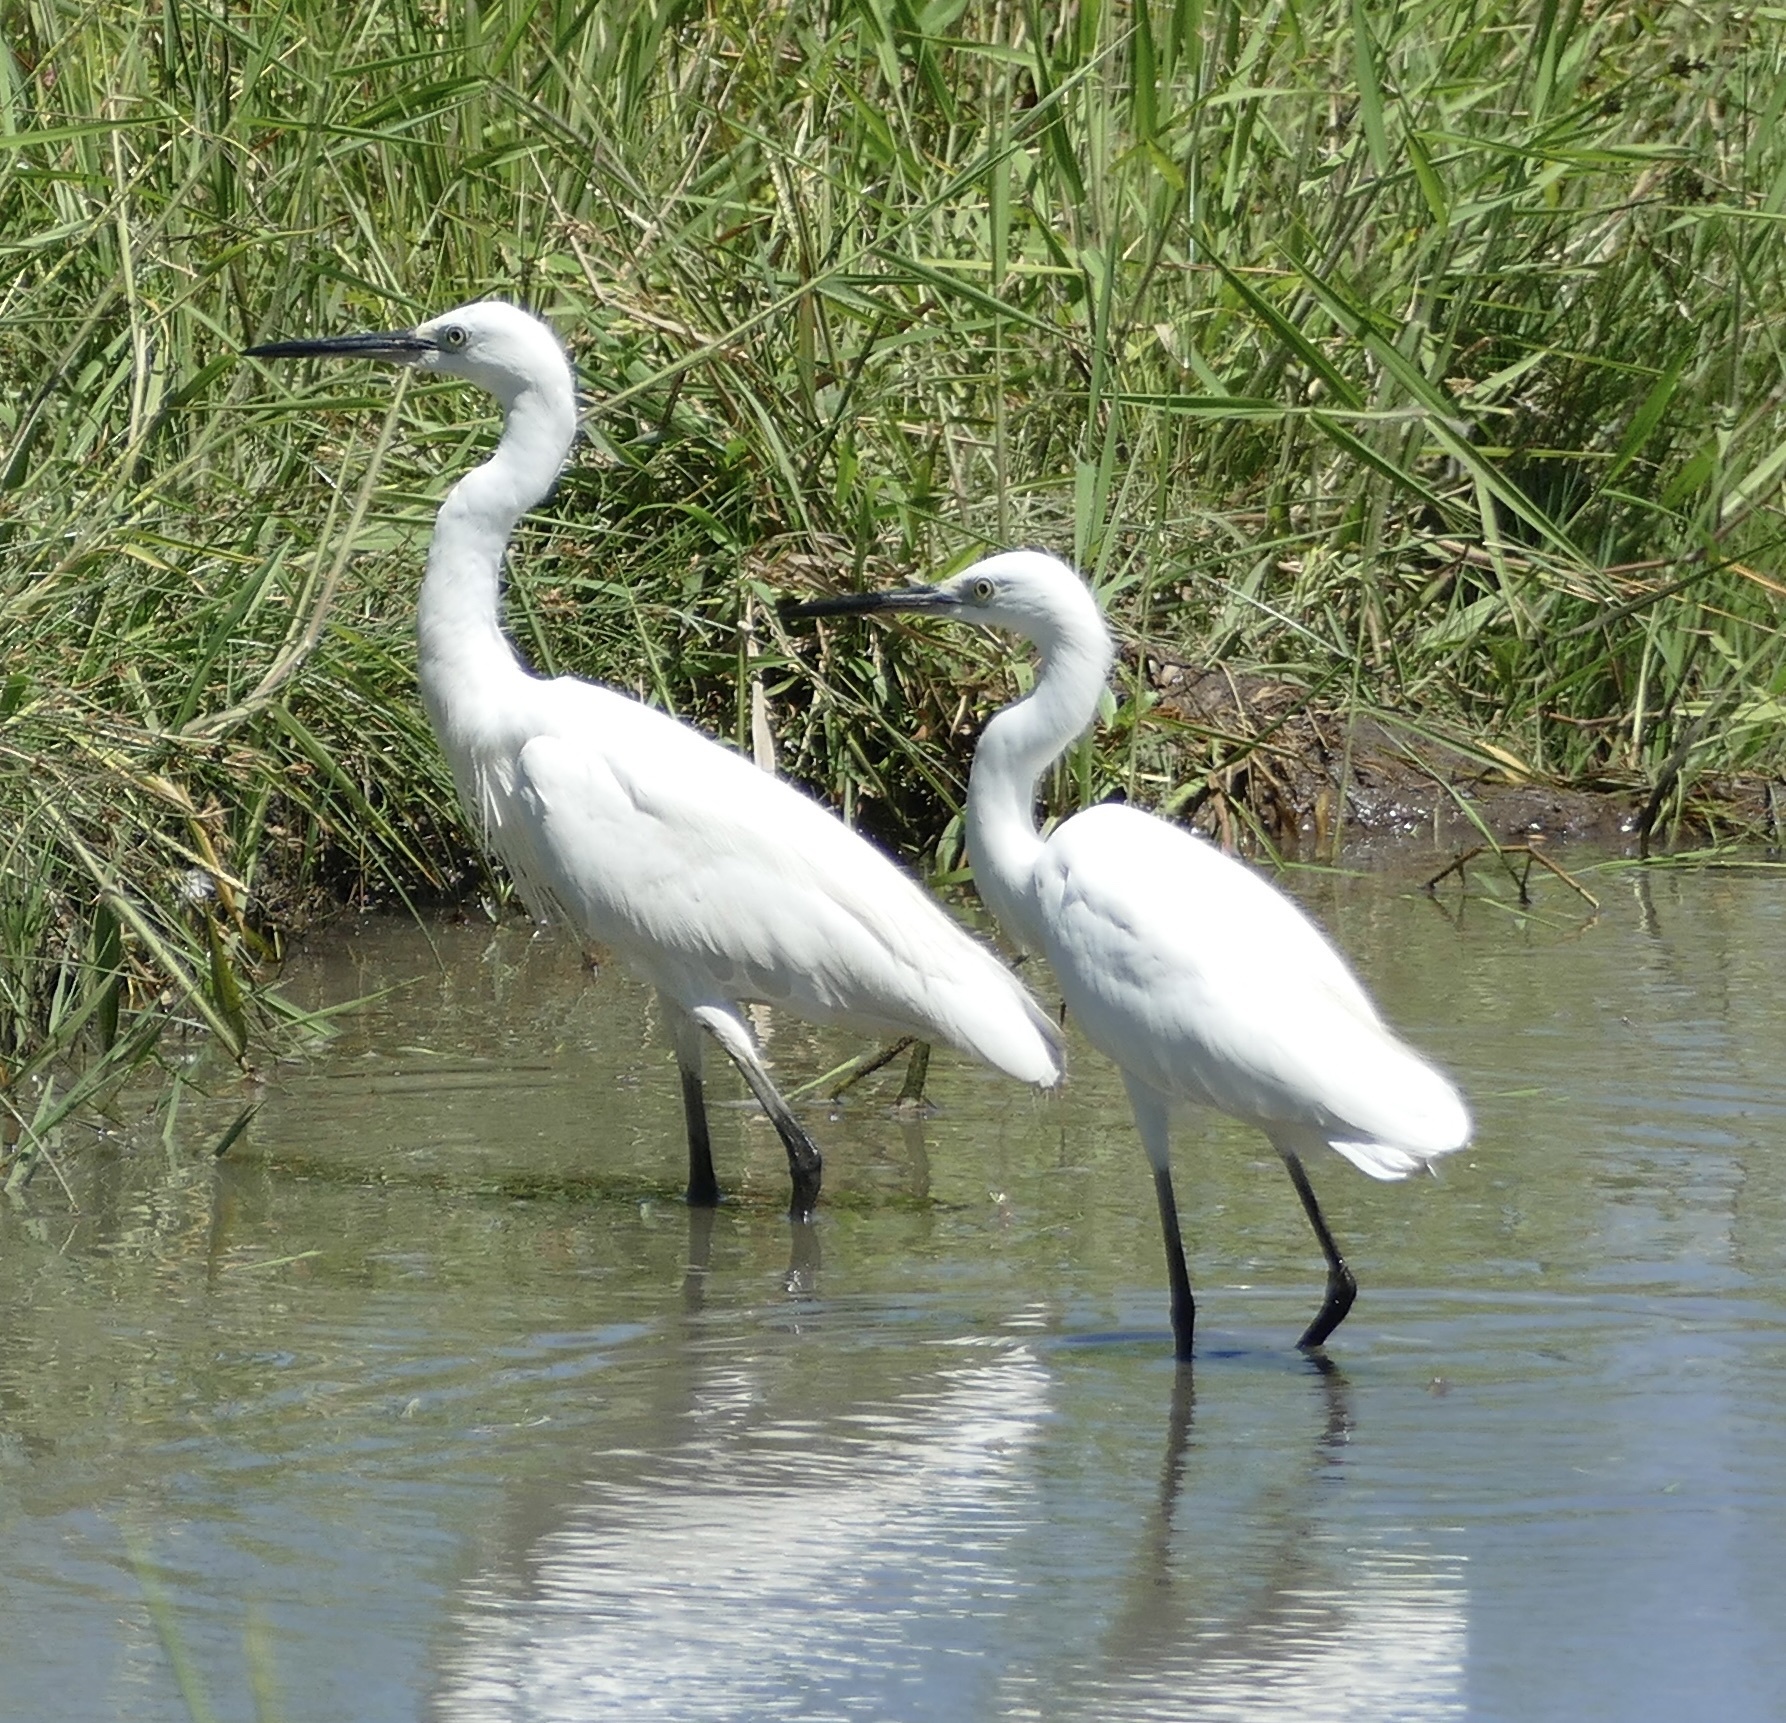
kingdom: Animalia
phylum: Chordata
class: Aves
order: Pelecaniformes
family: Ardeidae
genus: Egretta
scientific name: Egretta garzetta
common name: Little egret
